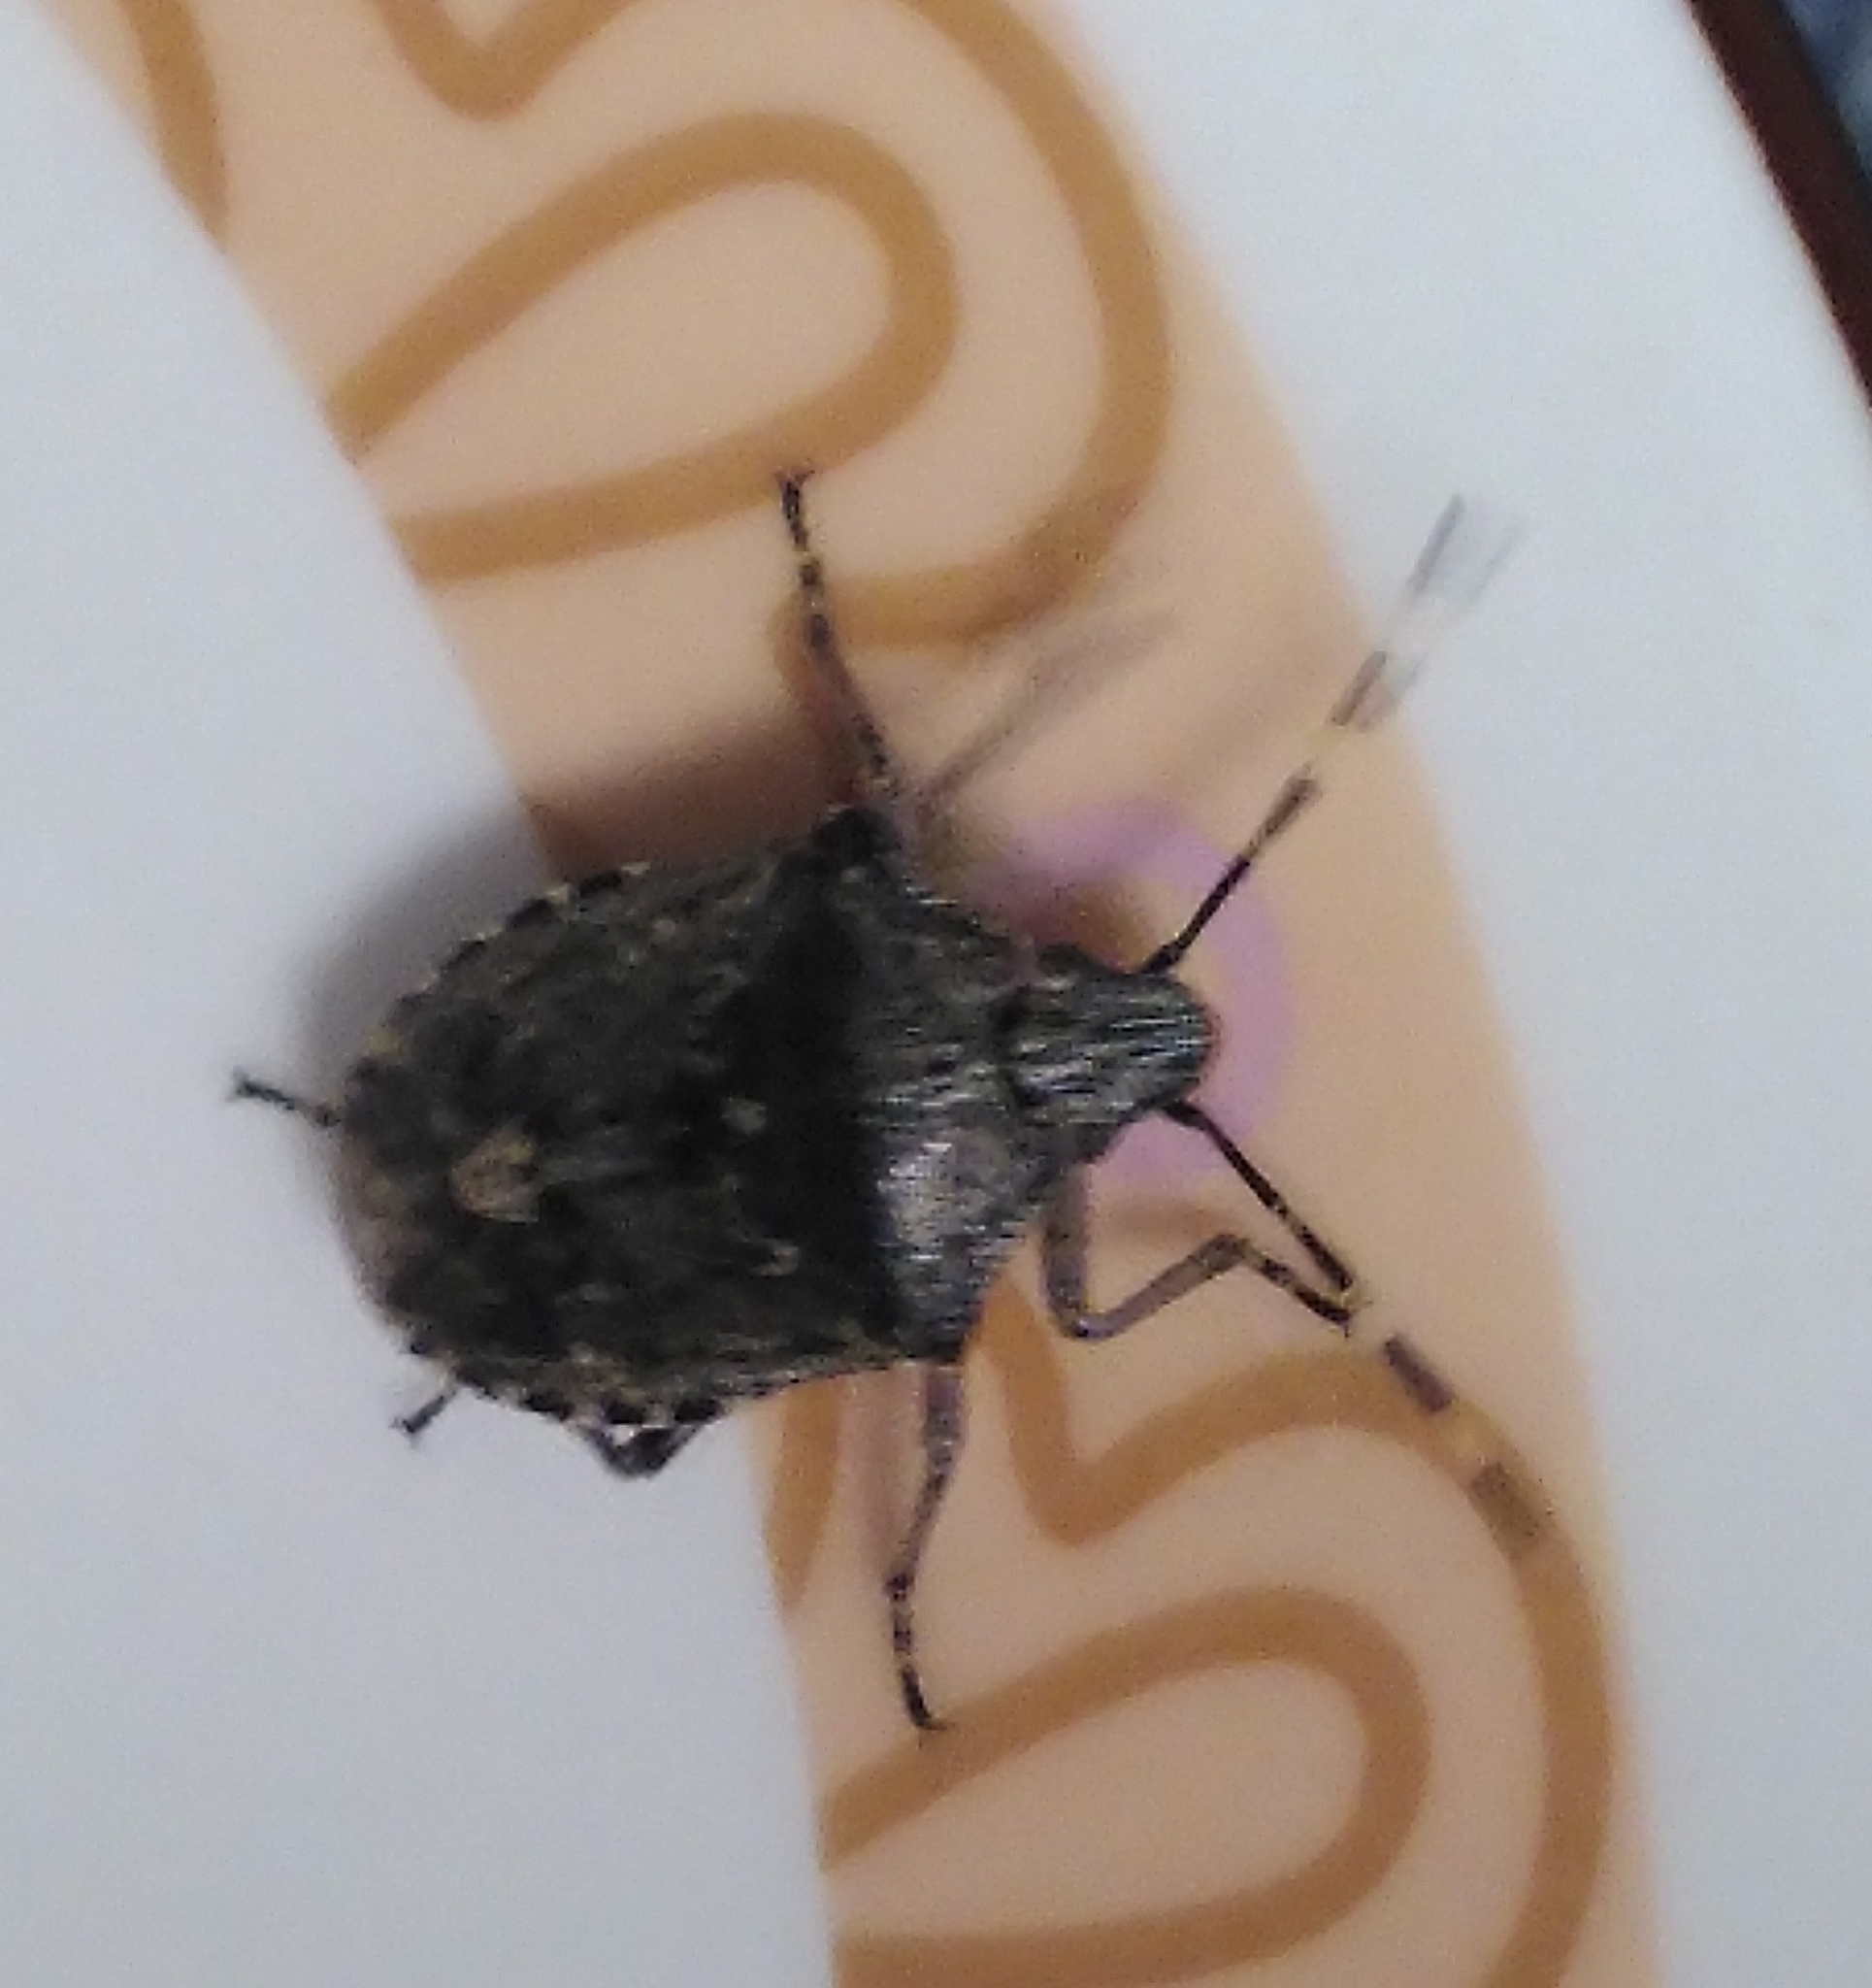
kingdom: Animalia
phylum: Arthropoda
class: Insecta
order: Hemiptera
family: Pentatomidae
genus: Rhaphigaster
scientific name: Rhaphigaster nebulosa
